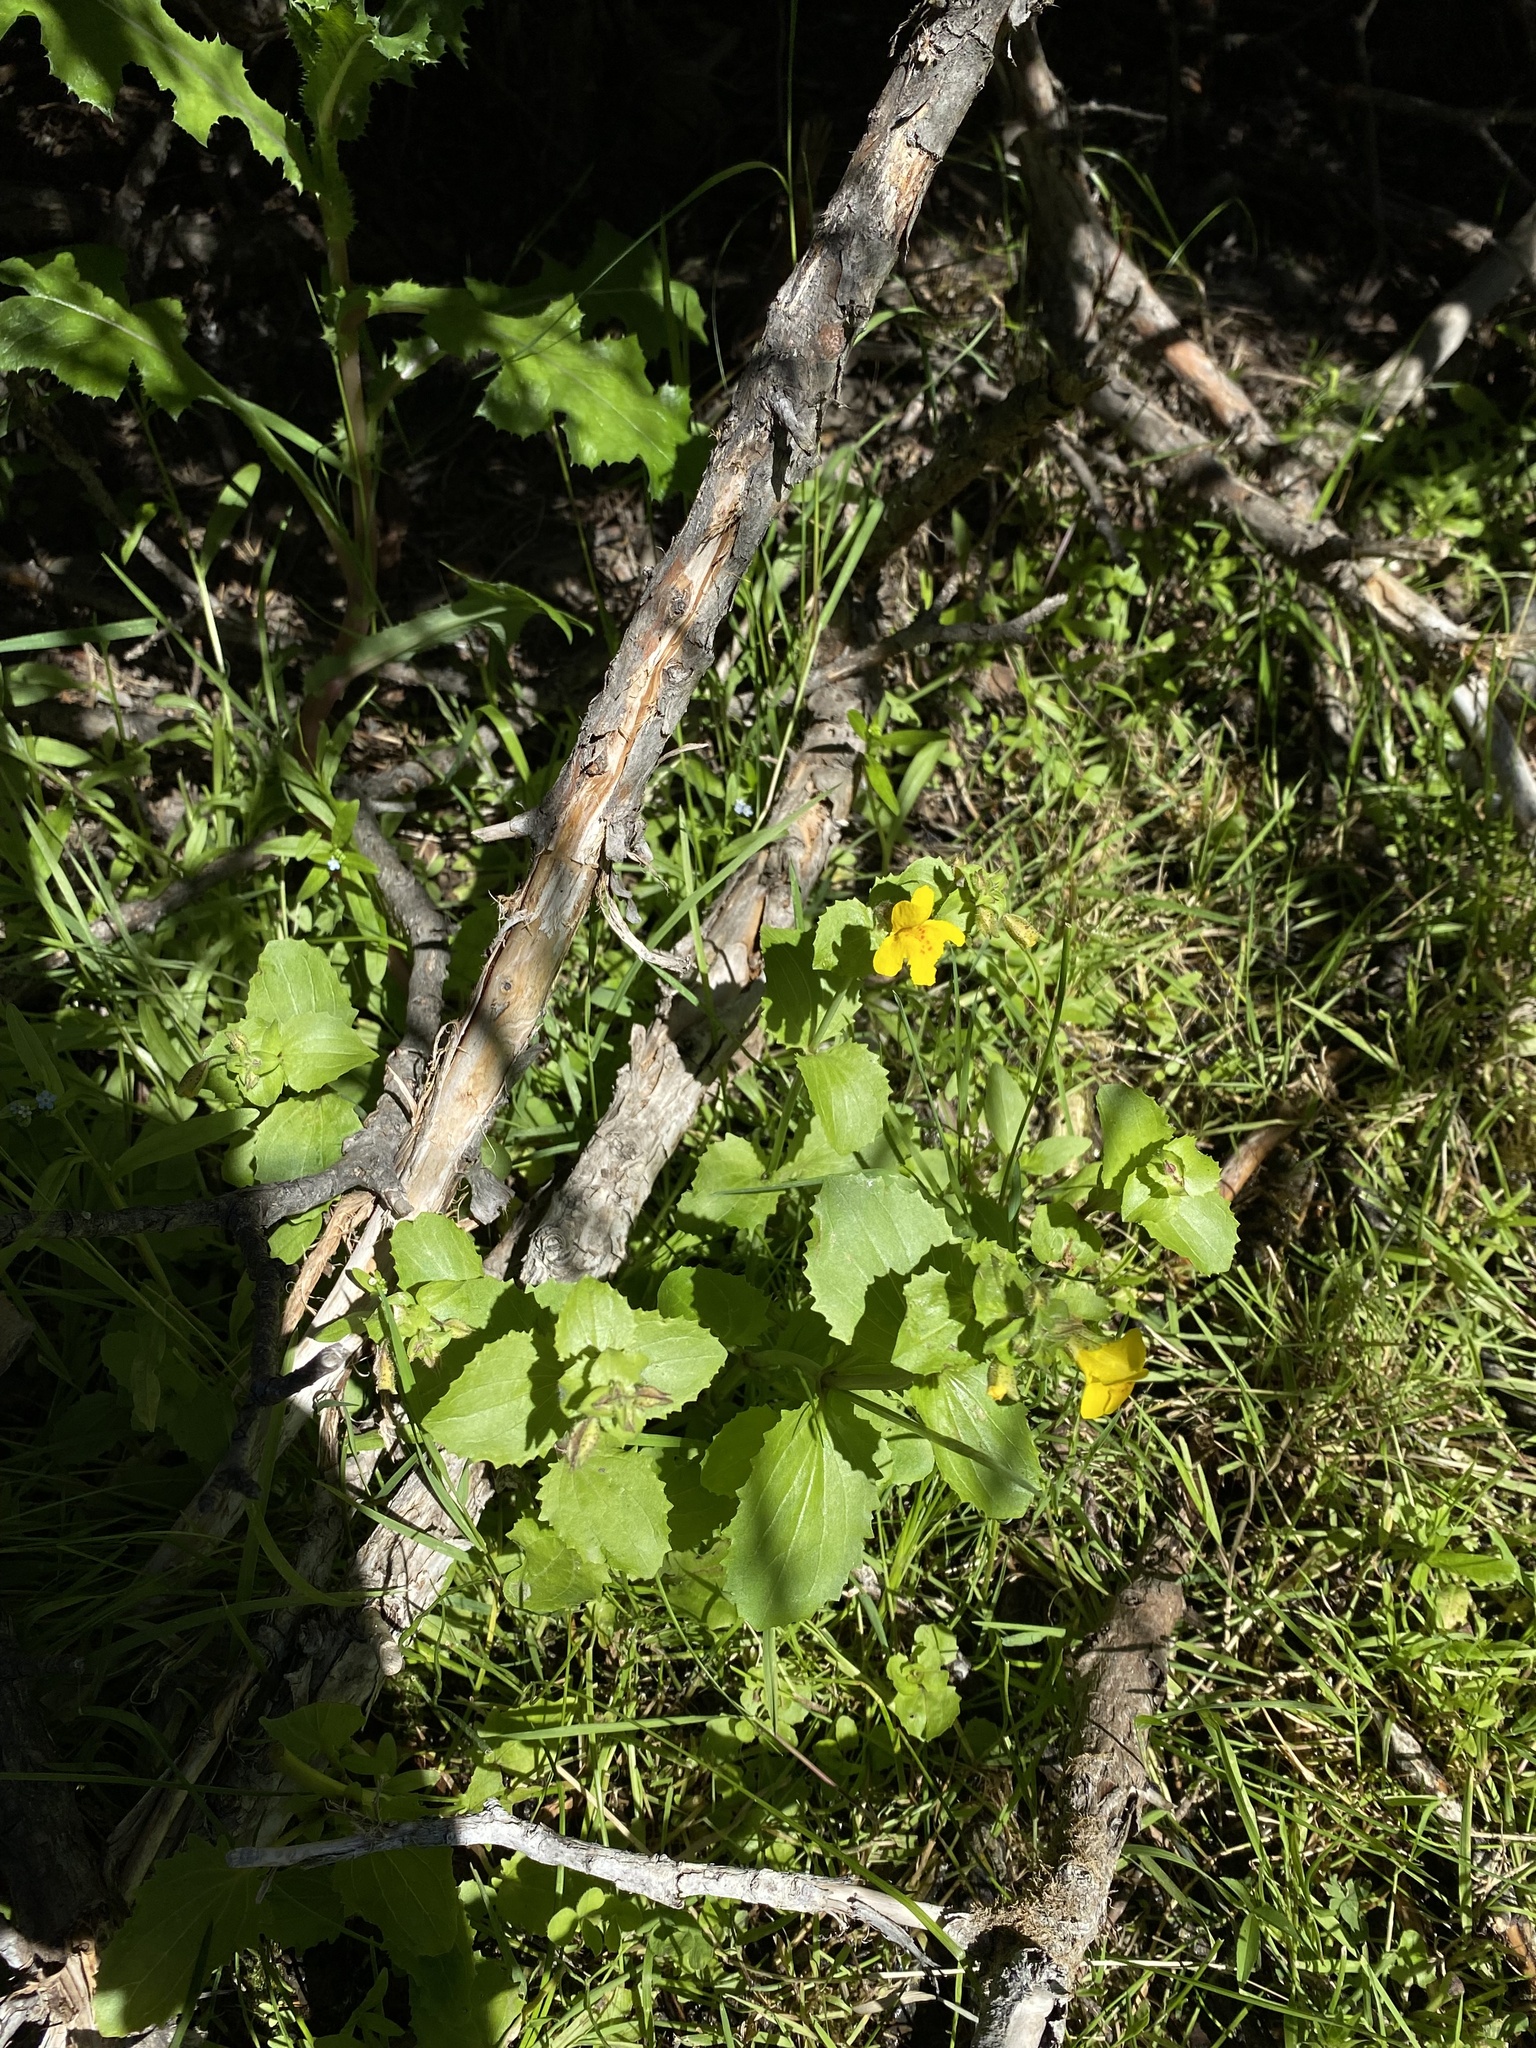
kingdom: Plantae
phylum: Tracheophyta
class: Magnoliopsida
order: Lamiales
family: Phrymaceae
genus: Erythranthe
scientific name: Erythranthe guttata
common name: Monkeyflower
